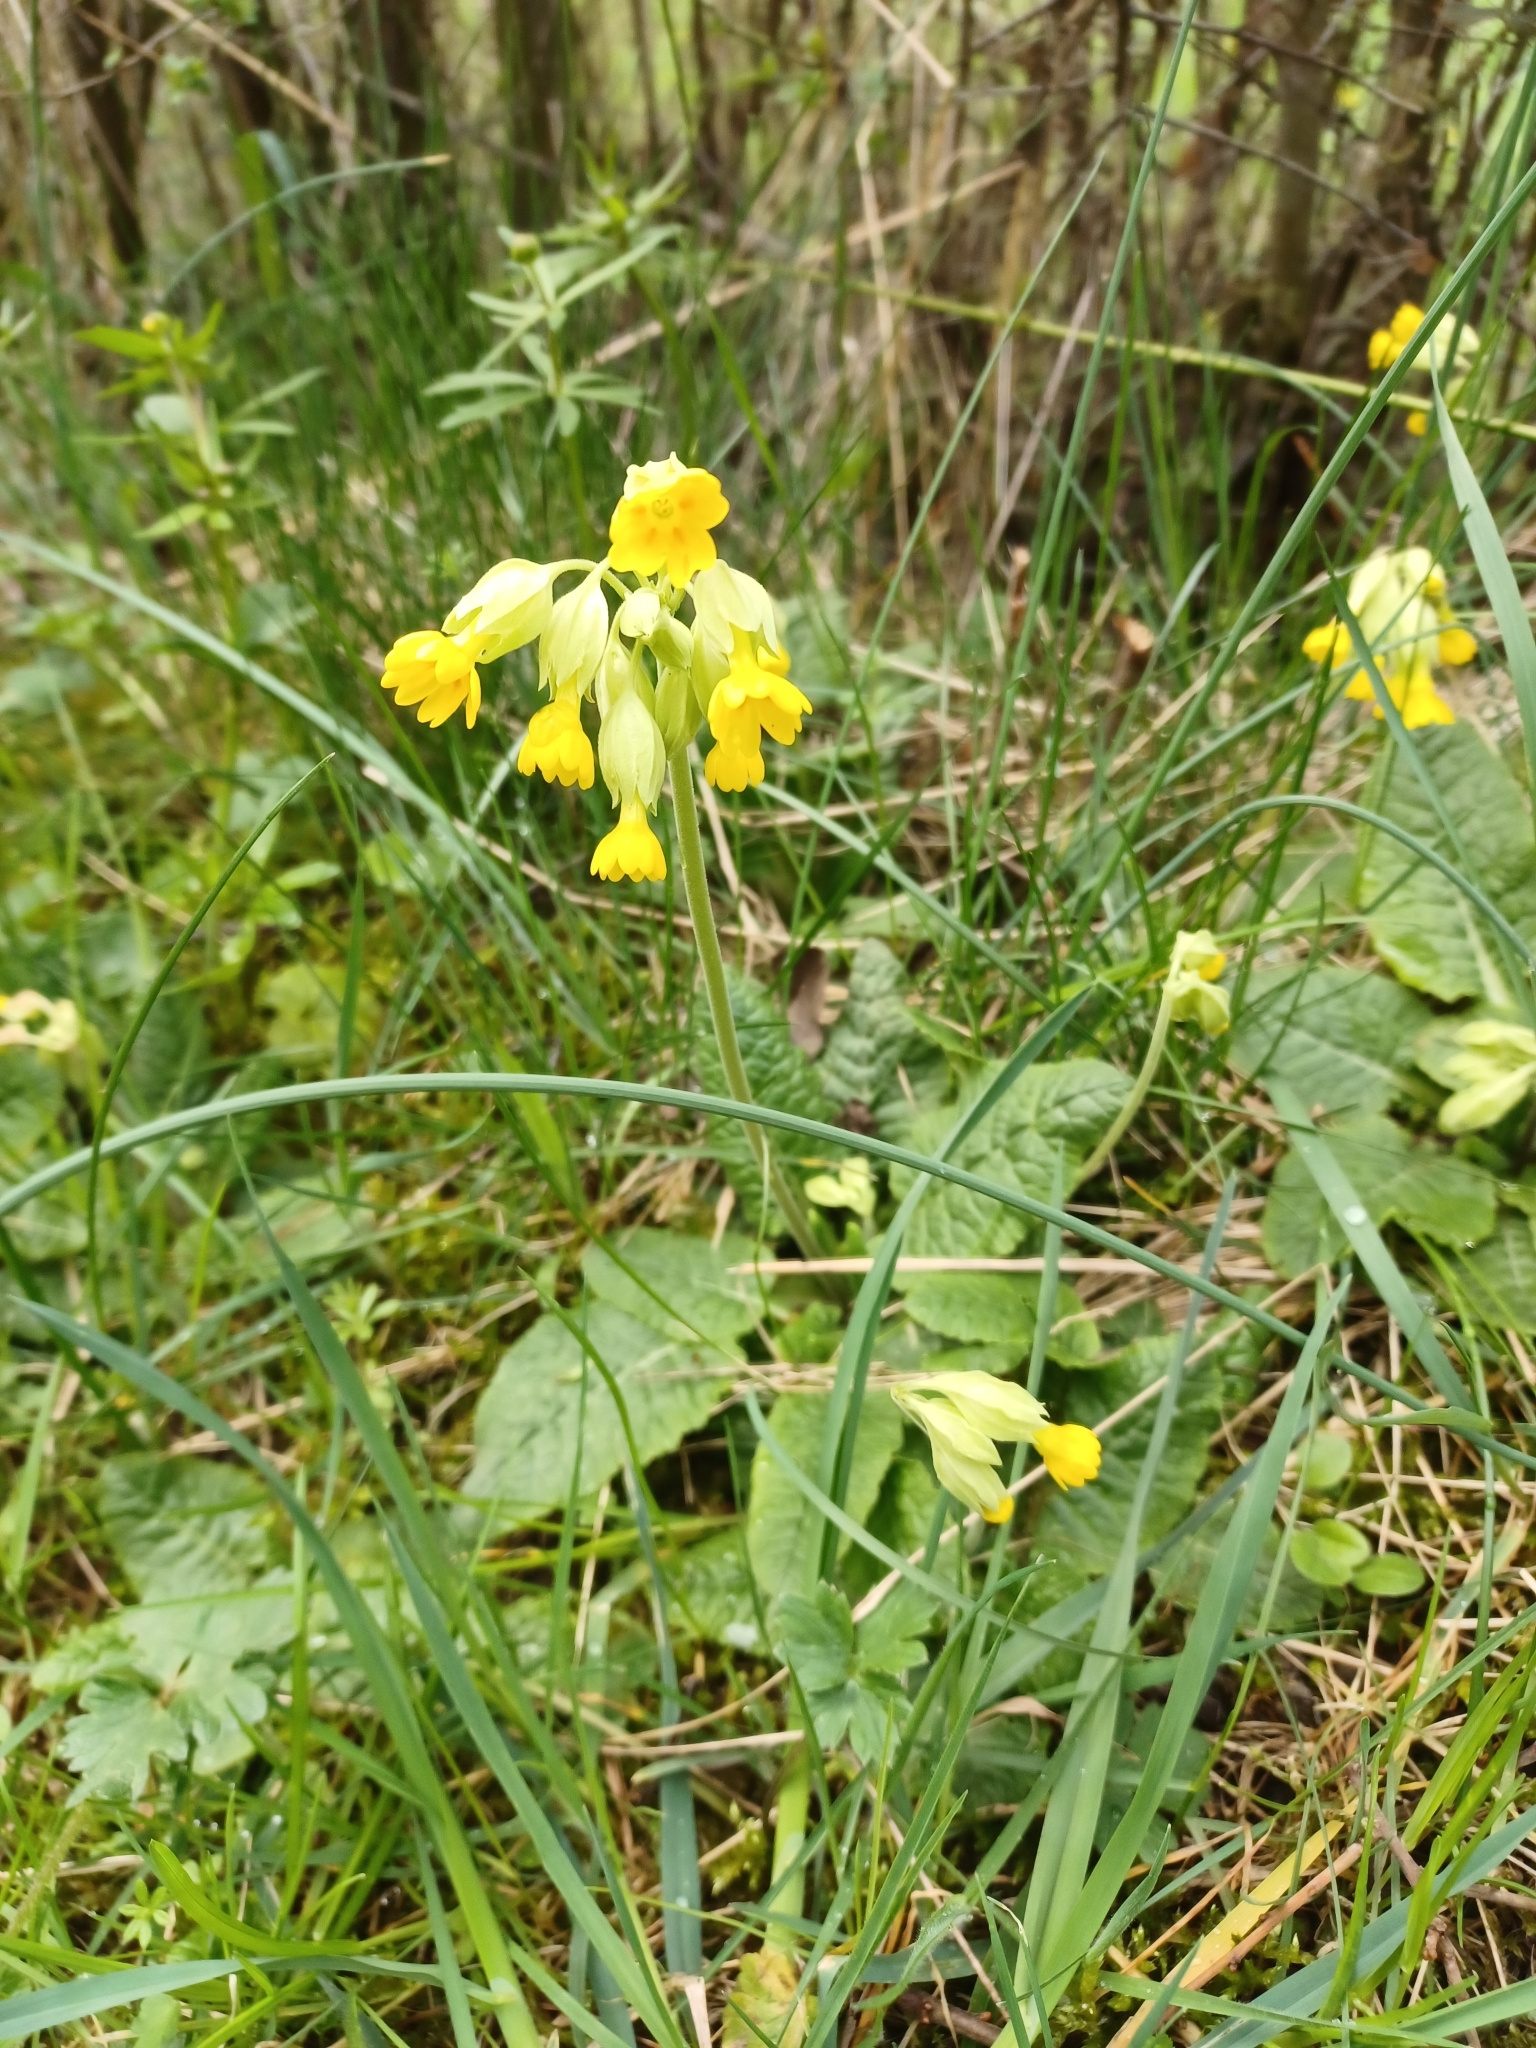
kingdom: Plantae
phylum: Tracheophyta
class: Magnoliopsida
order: Ericales
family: Primulaceae
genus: Primula
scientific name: Primula veris
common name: Cowslip
